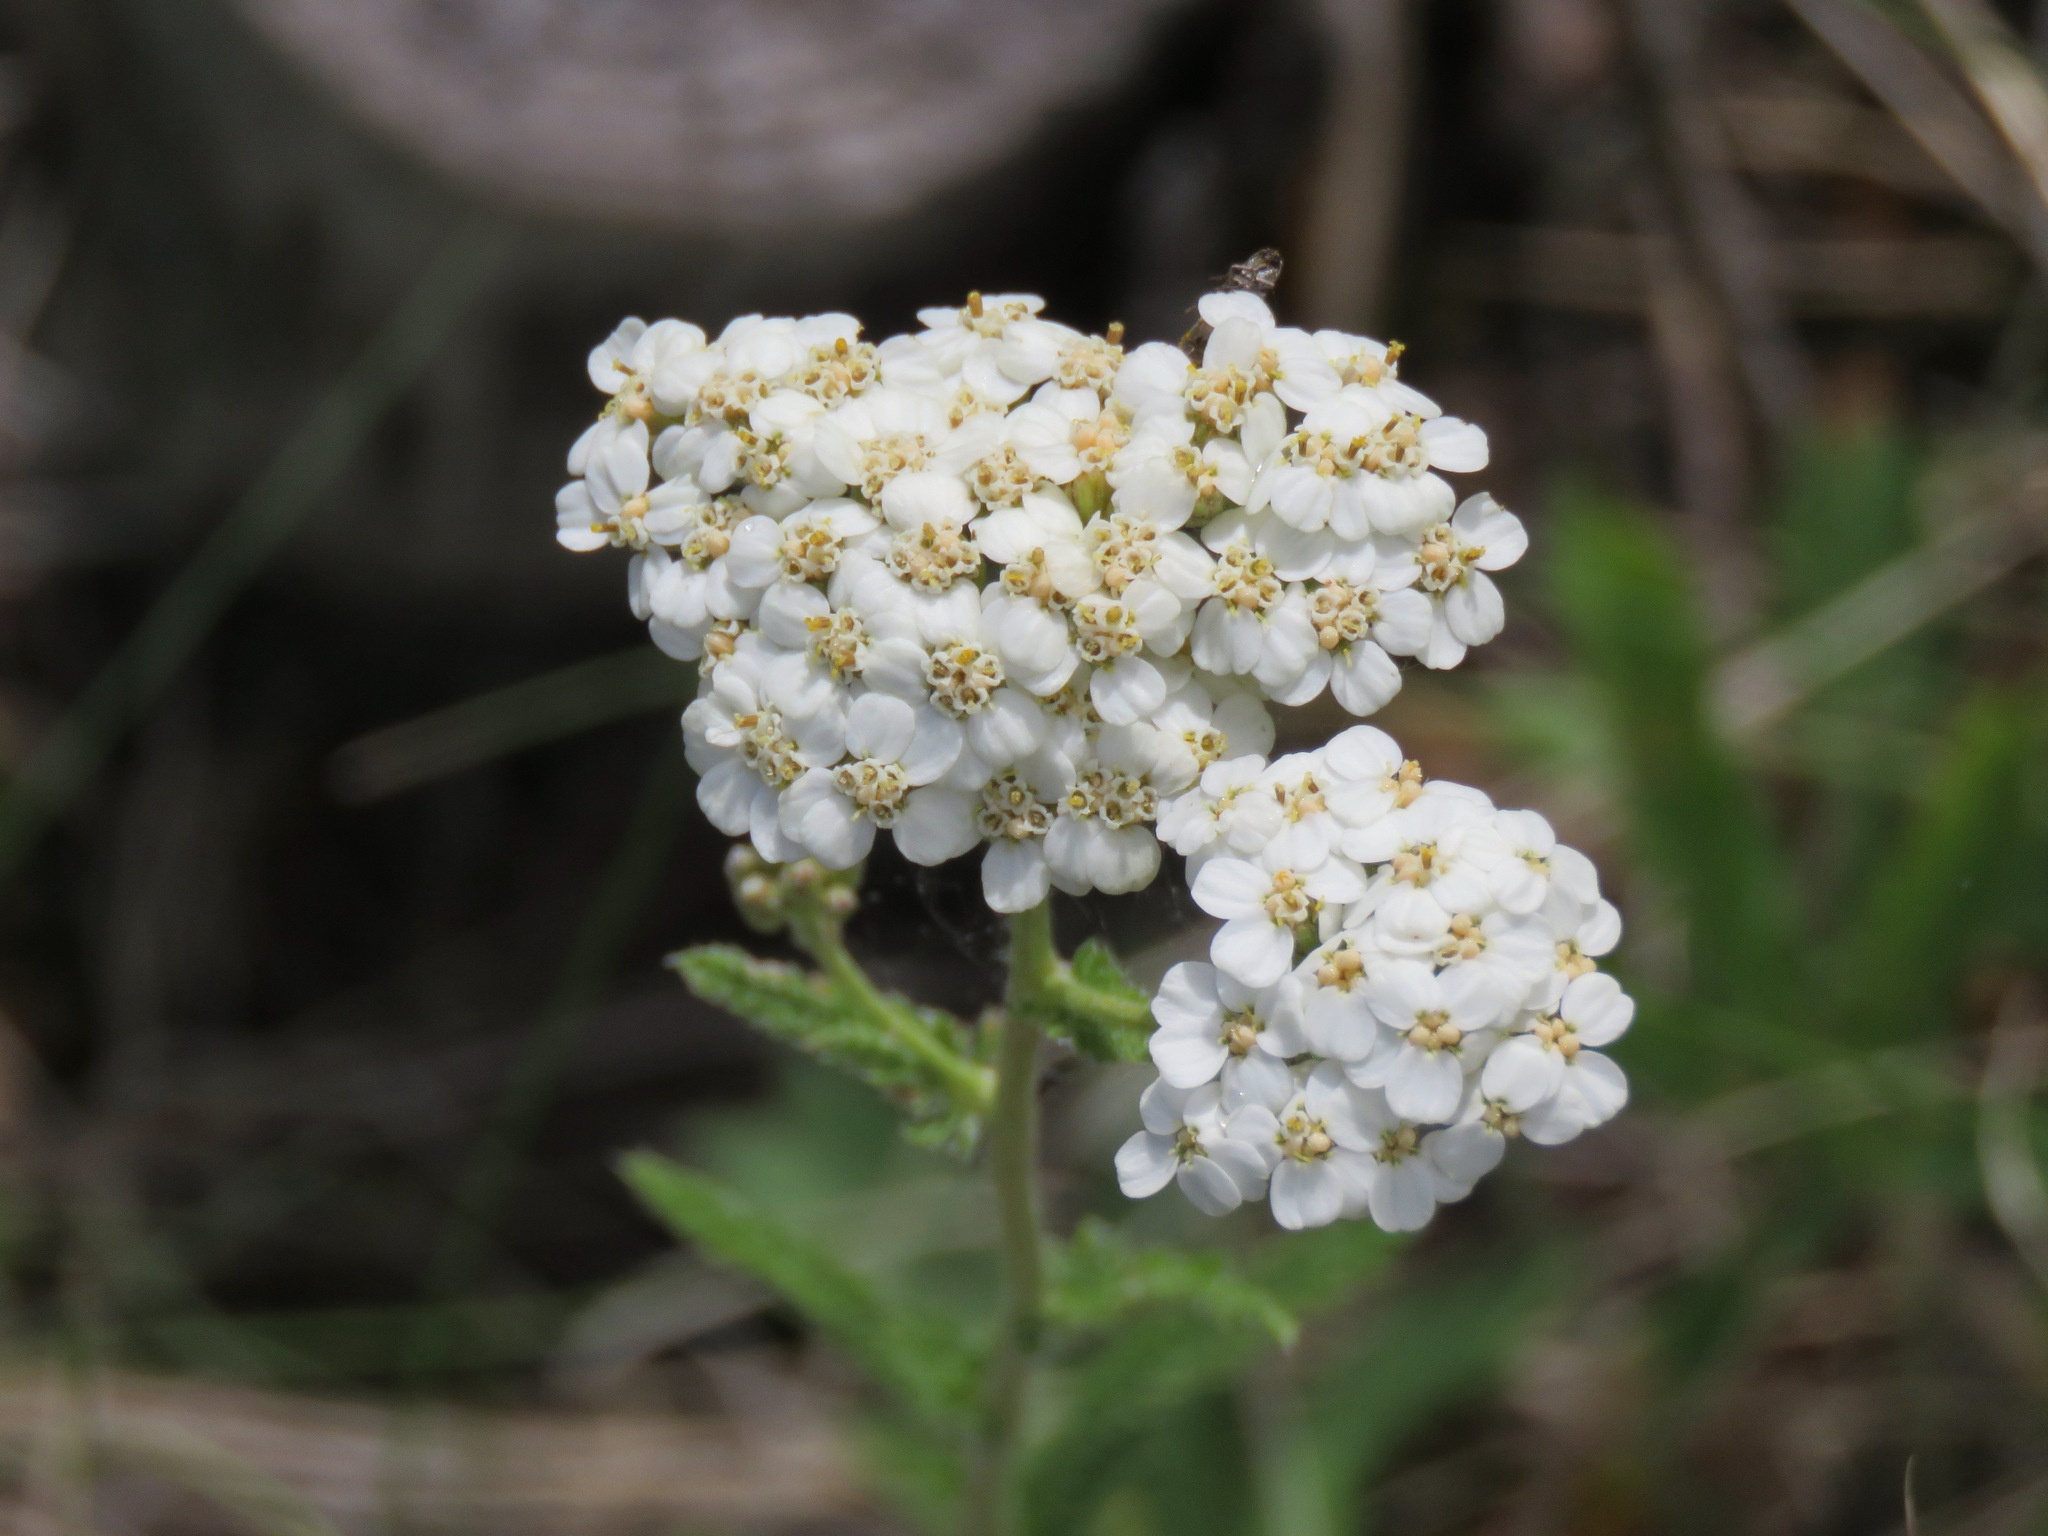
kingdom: Plantae
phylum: Tracheophyta
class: Magnoliopsida
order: Asterales
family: Asteraceae
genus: Achillea
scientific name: Achillea millefolium
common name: Yarrow
